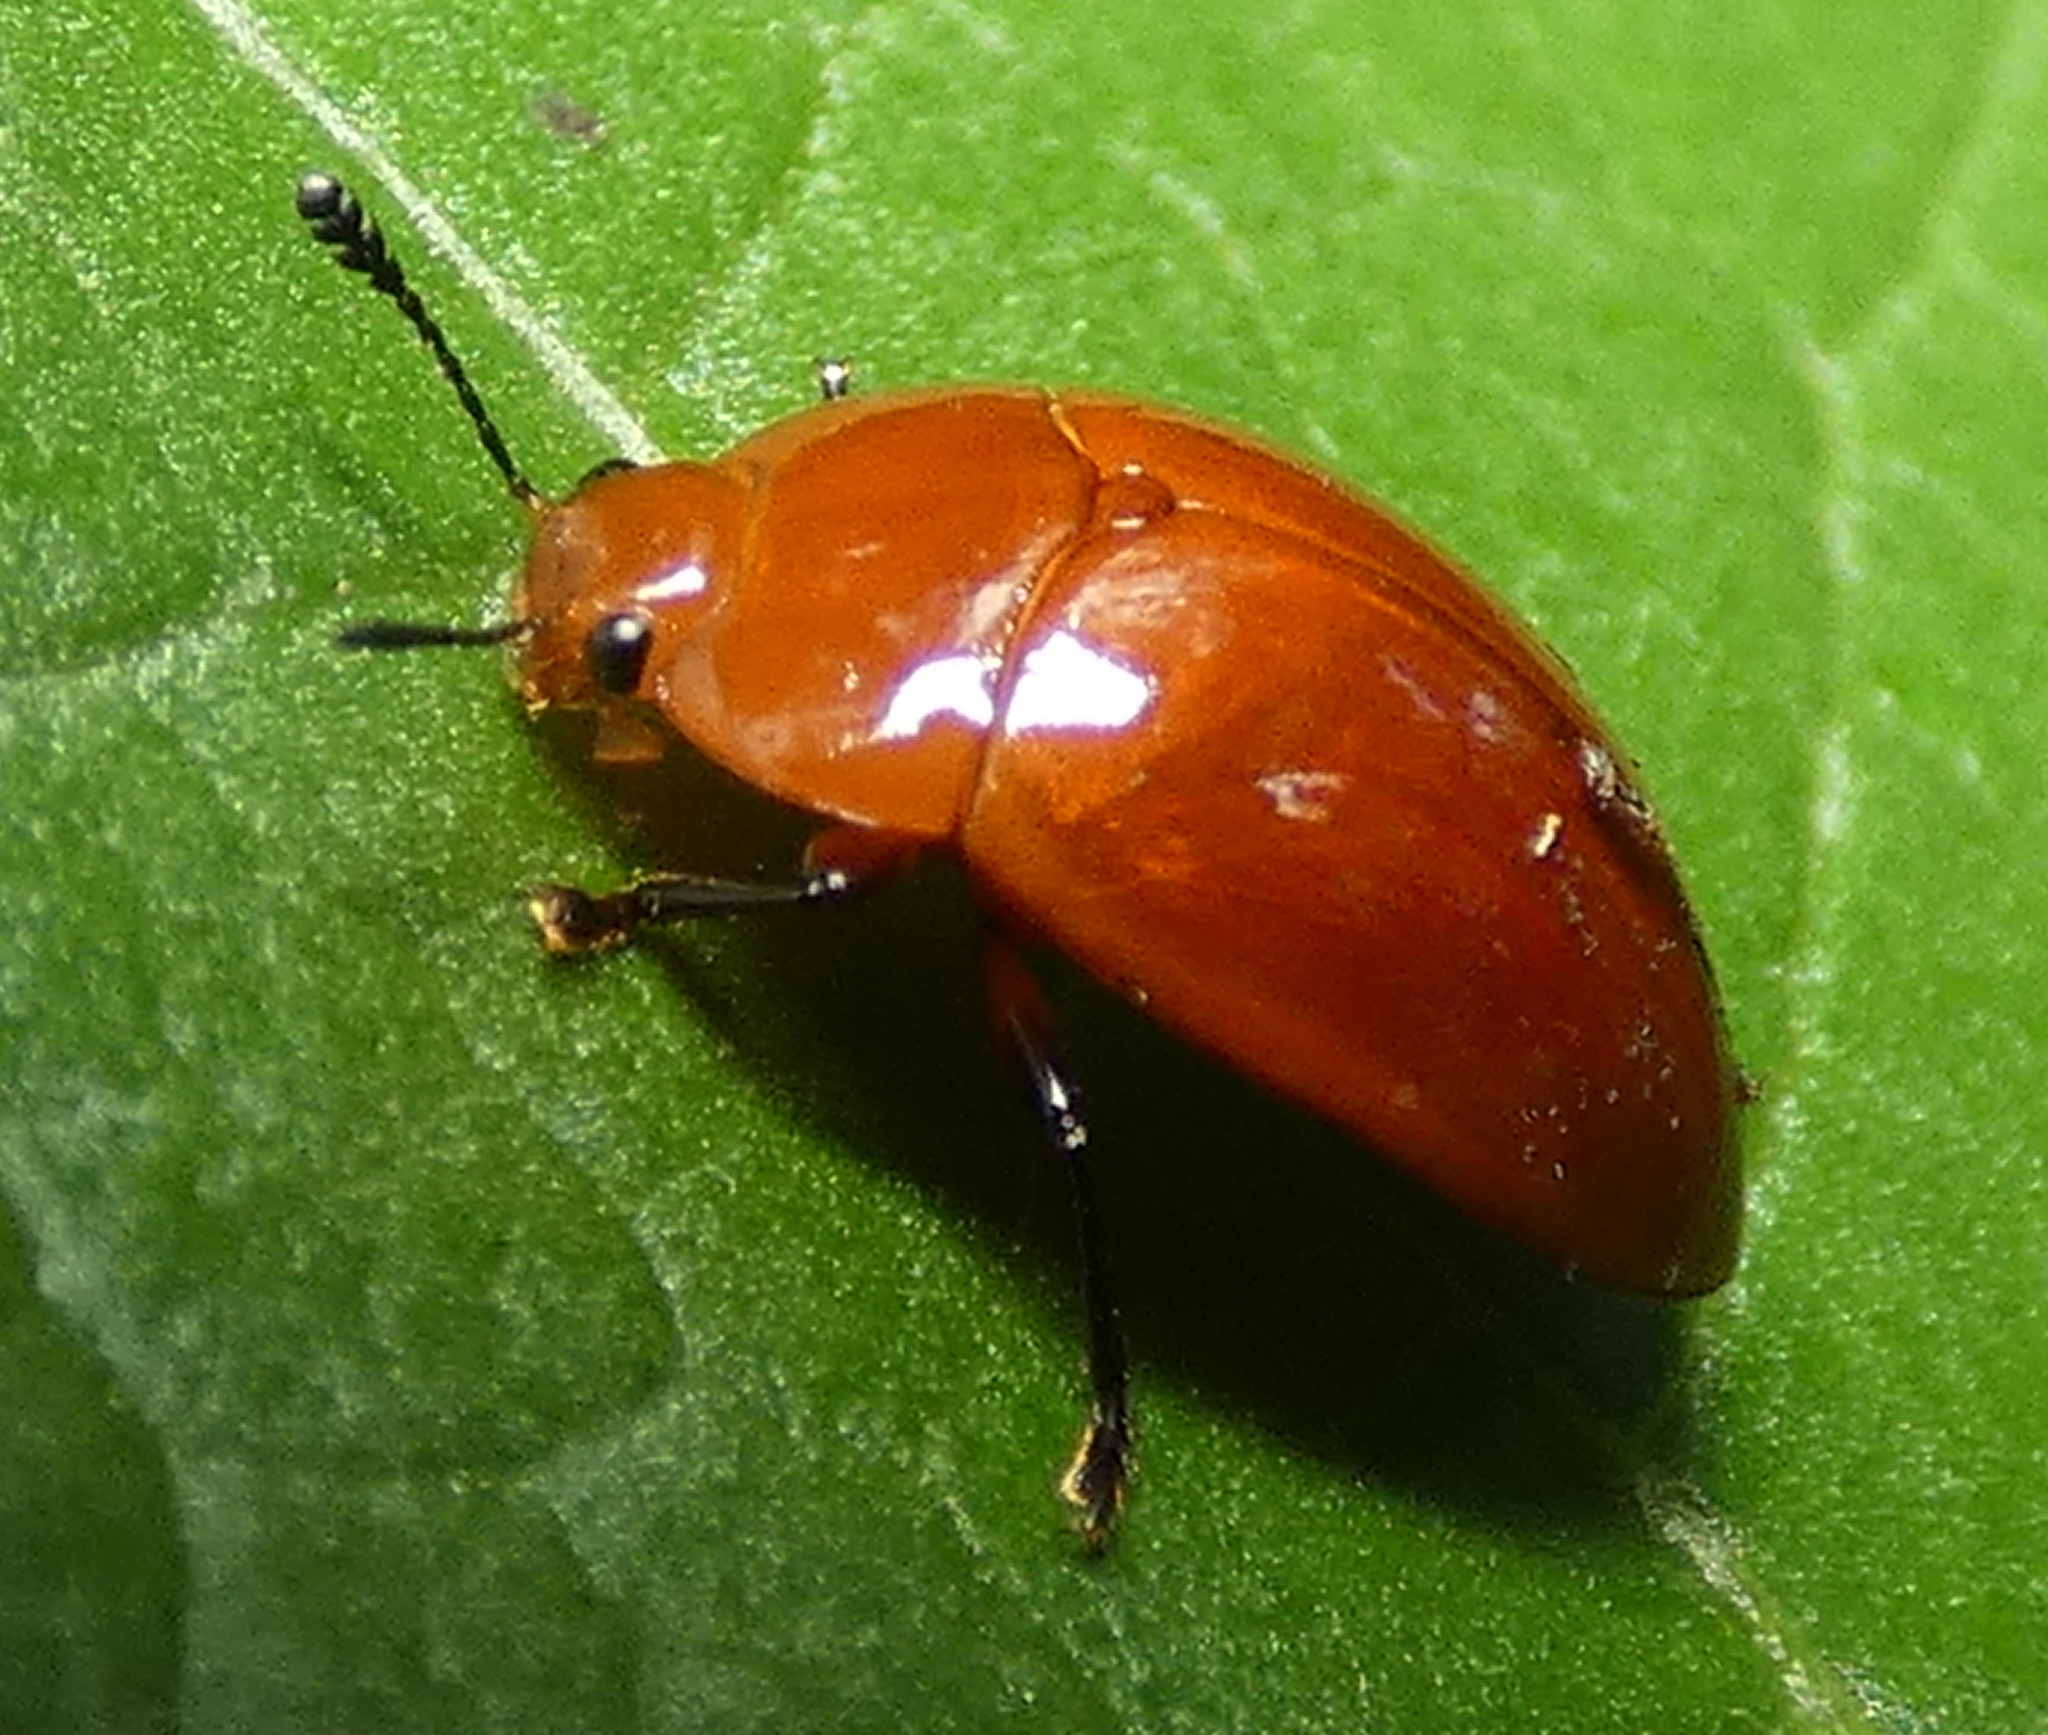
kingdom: Animalia
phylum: Arthropoda
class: Insecta
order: Coleoptera
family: Erotylidae
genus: Iphiclus
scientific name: Iphiclus
